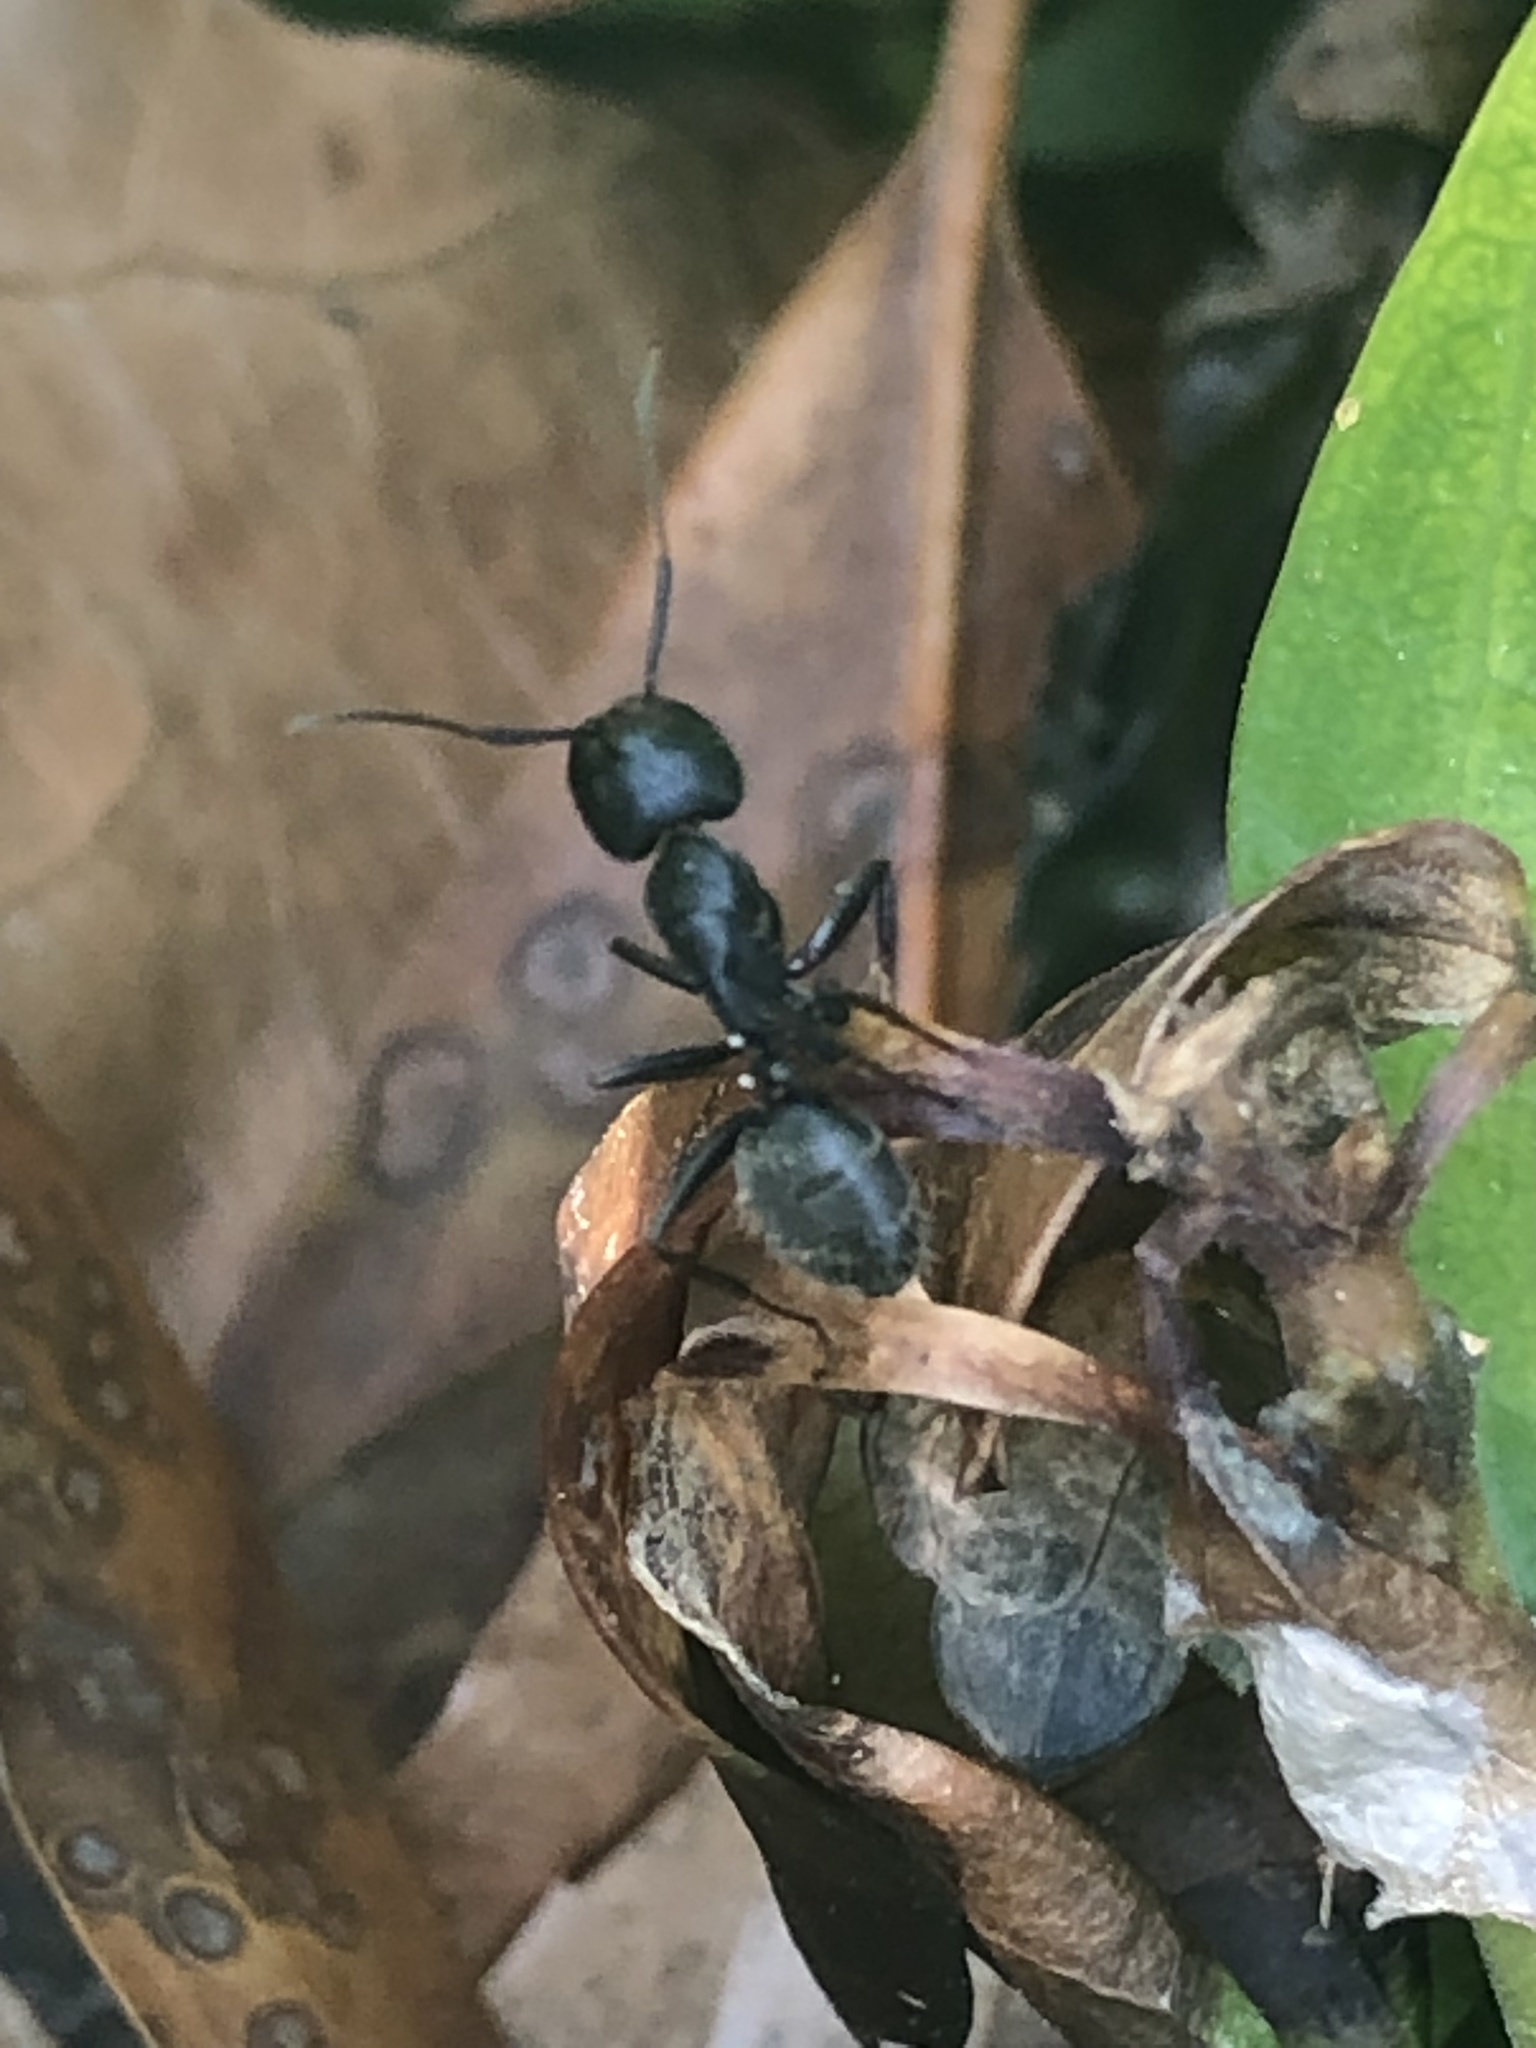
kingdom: Animalia
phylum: Arthropoda
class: Insecta
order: Hymenoptera
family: Formicidae
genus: Camponotus
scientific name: Camponotus pennsylvanicus
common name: Black carpenter ant
